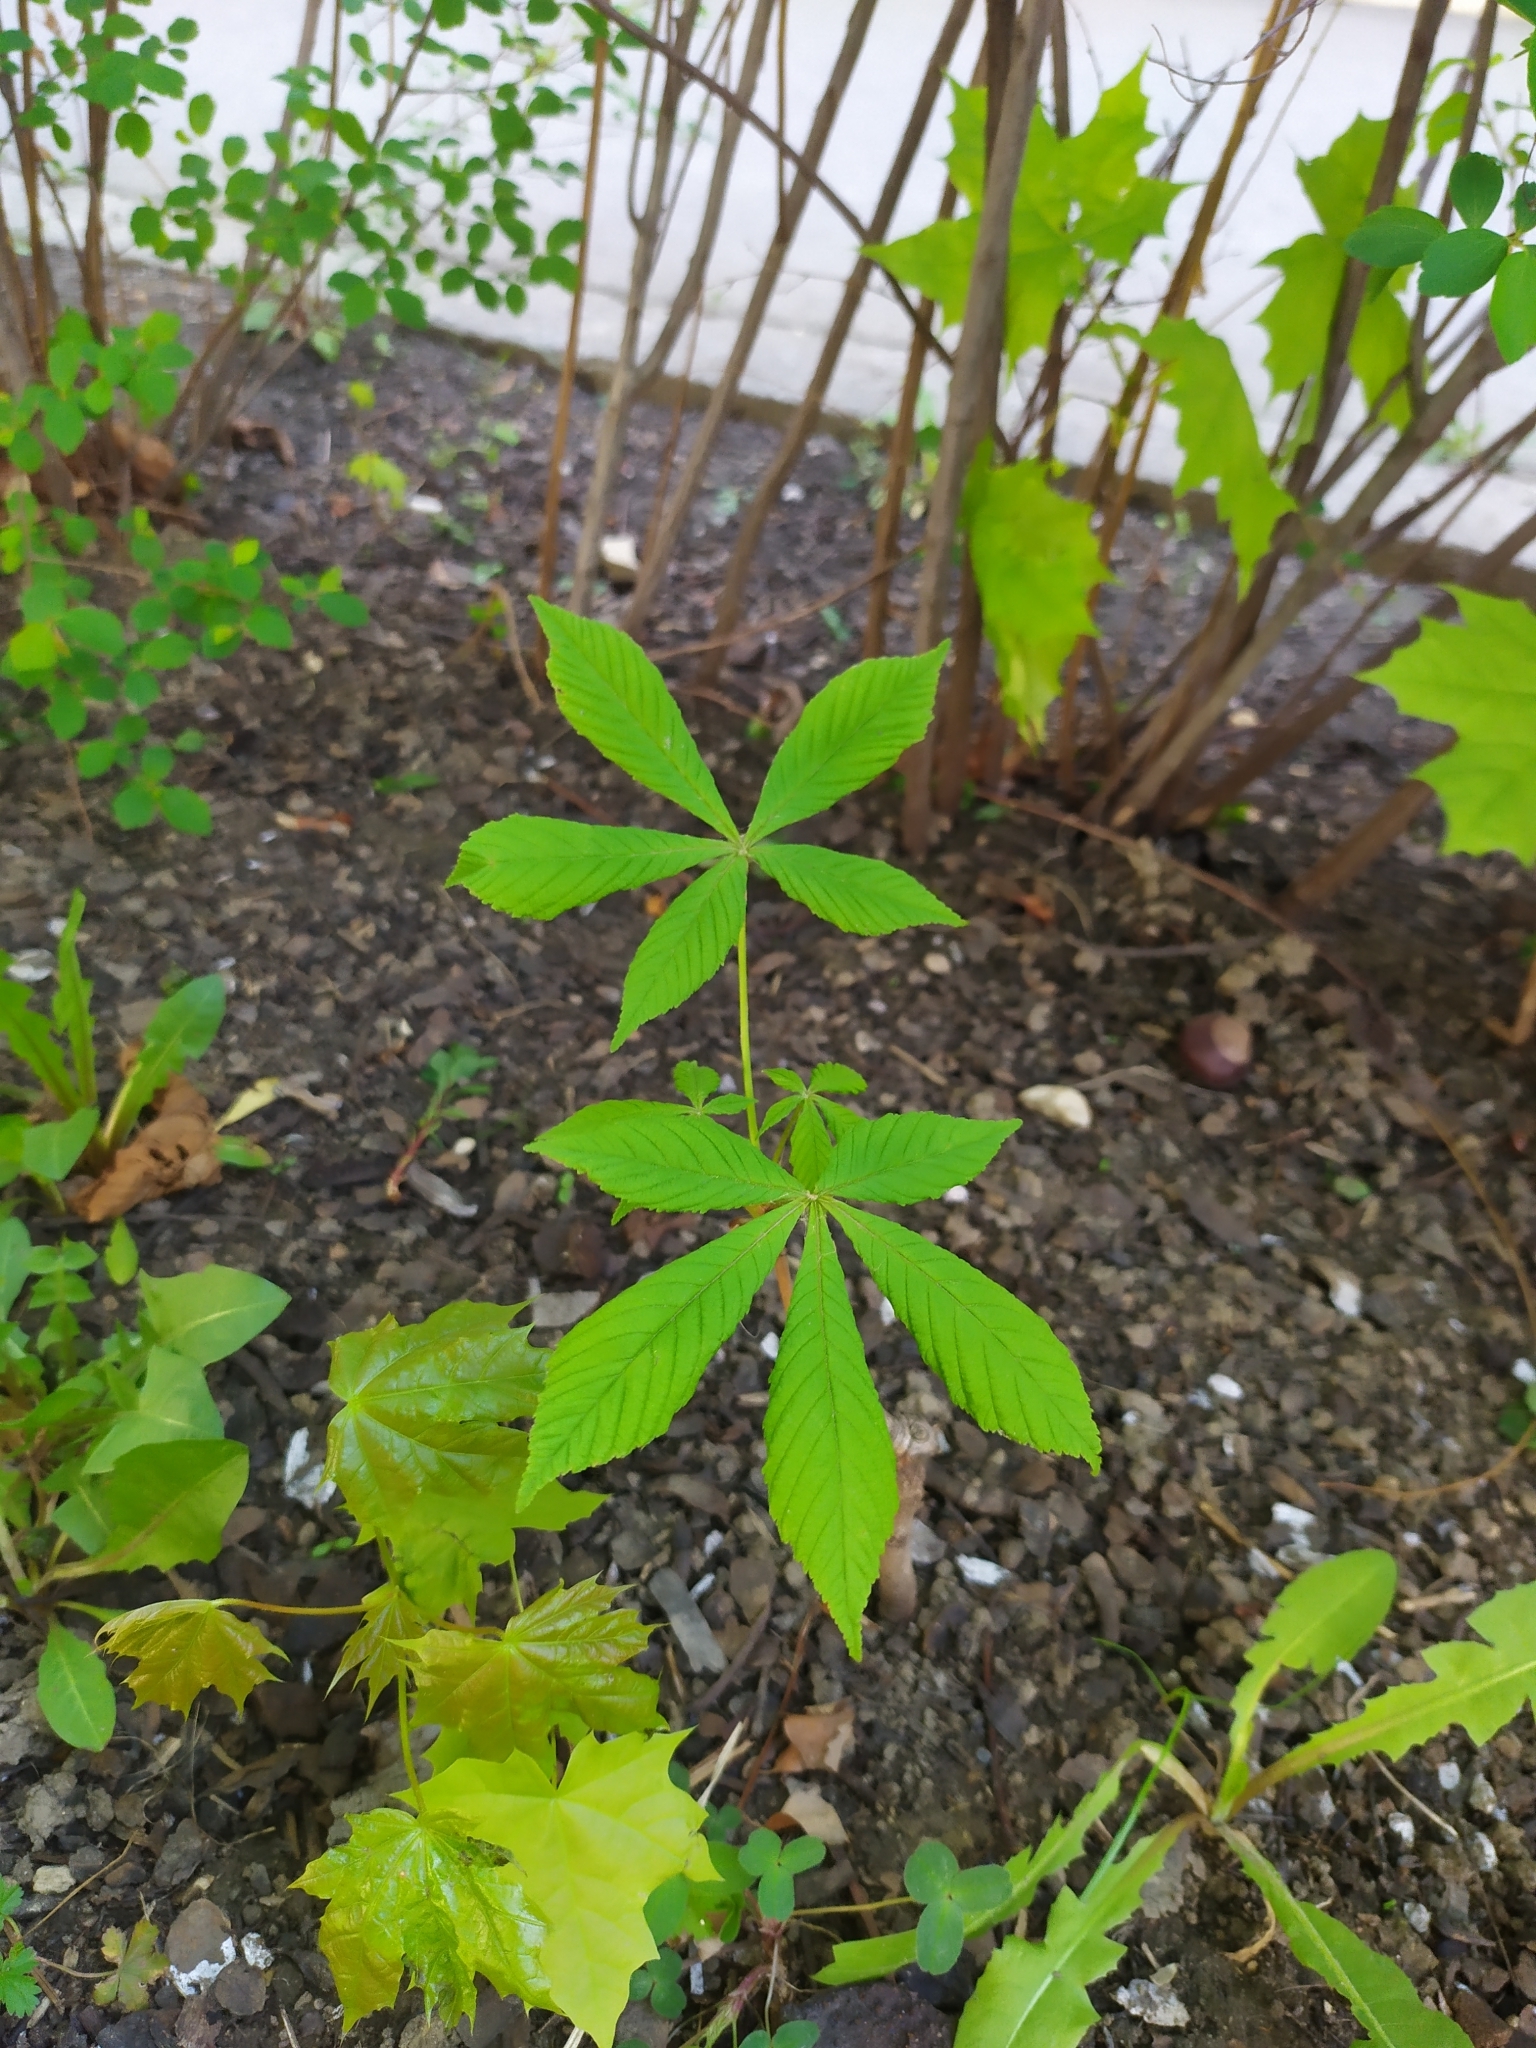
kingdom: Plantae
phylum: Tracheophyta
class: Magnoliopsida
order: Sapindales
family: Sapindaceae
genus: Aesculus
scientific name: Aesculus hippocastanum
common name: Horse-chestnut
